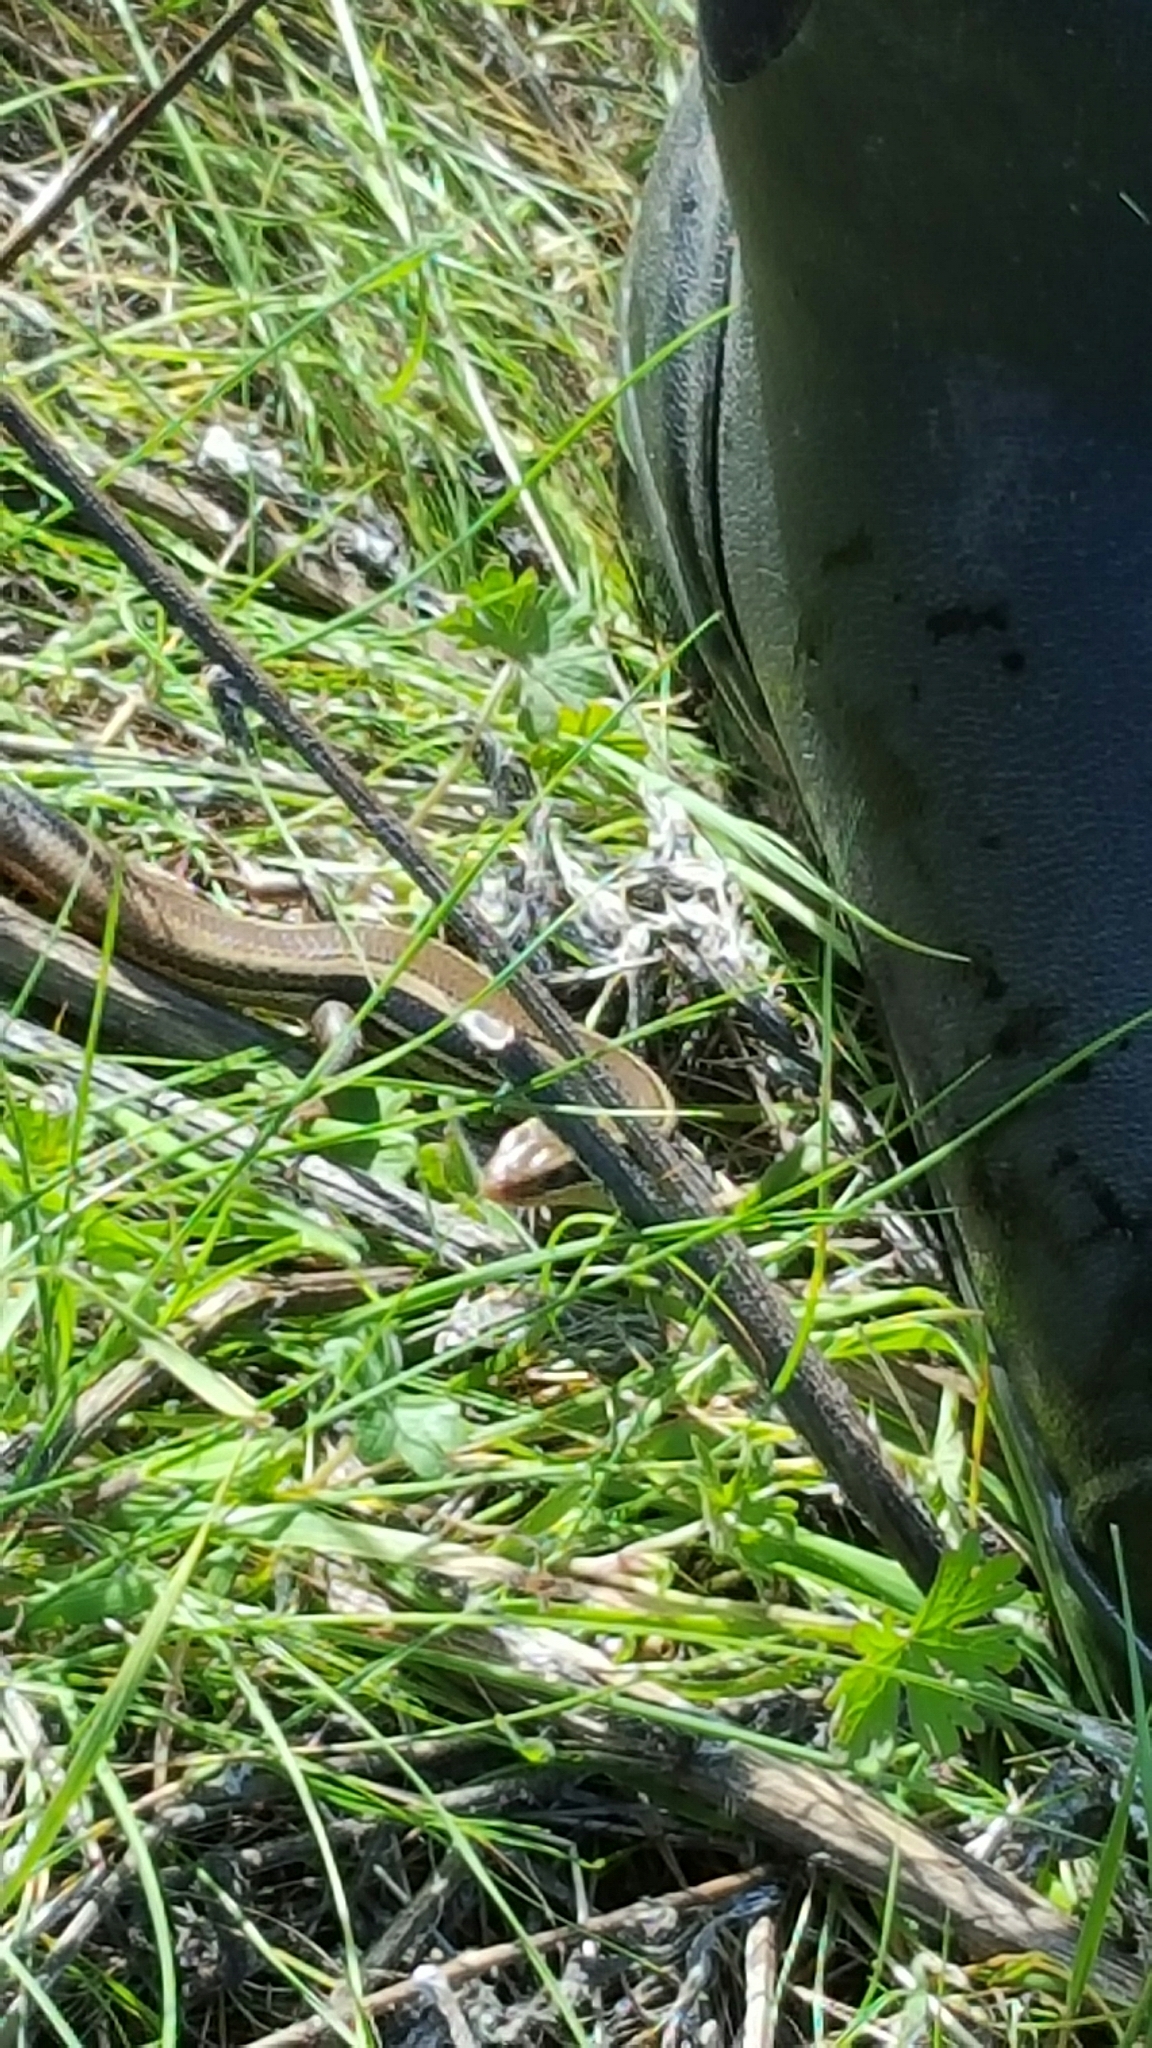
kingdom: Animalia
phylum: Chordata
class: Squamata
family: Scincidae
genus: Plestiodon
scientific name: Plestiodon skiltonianus
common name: Coronado island skink [interparietalis]
